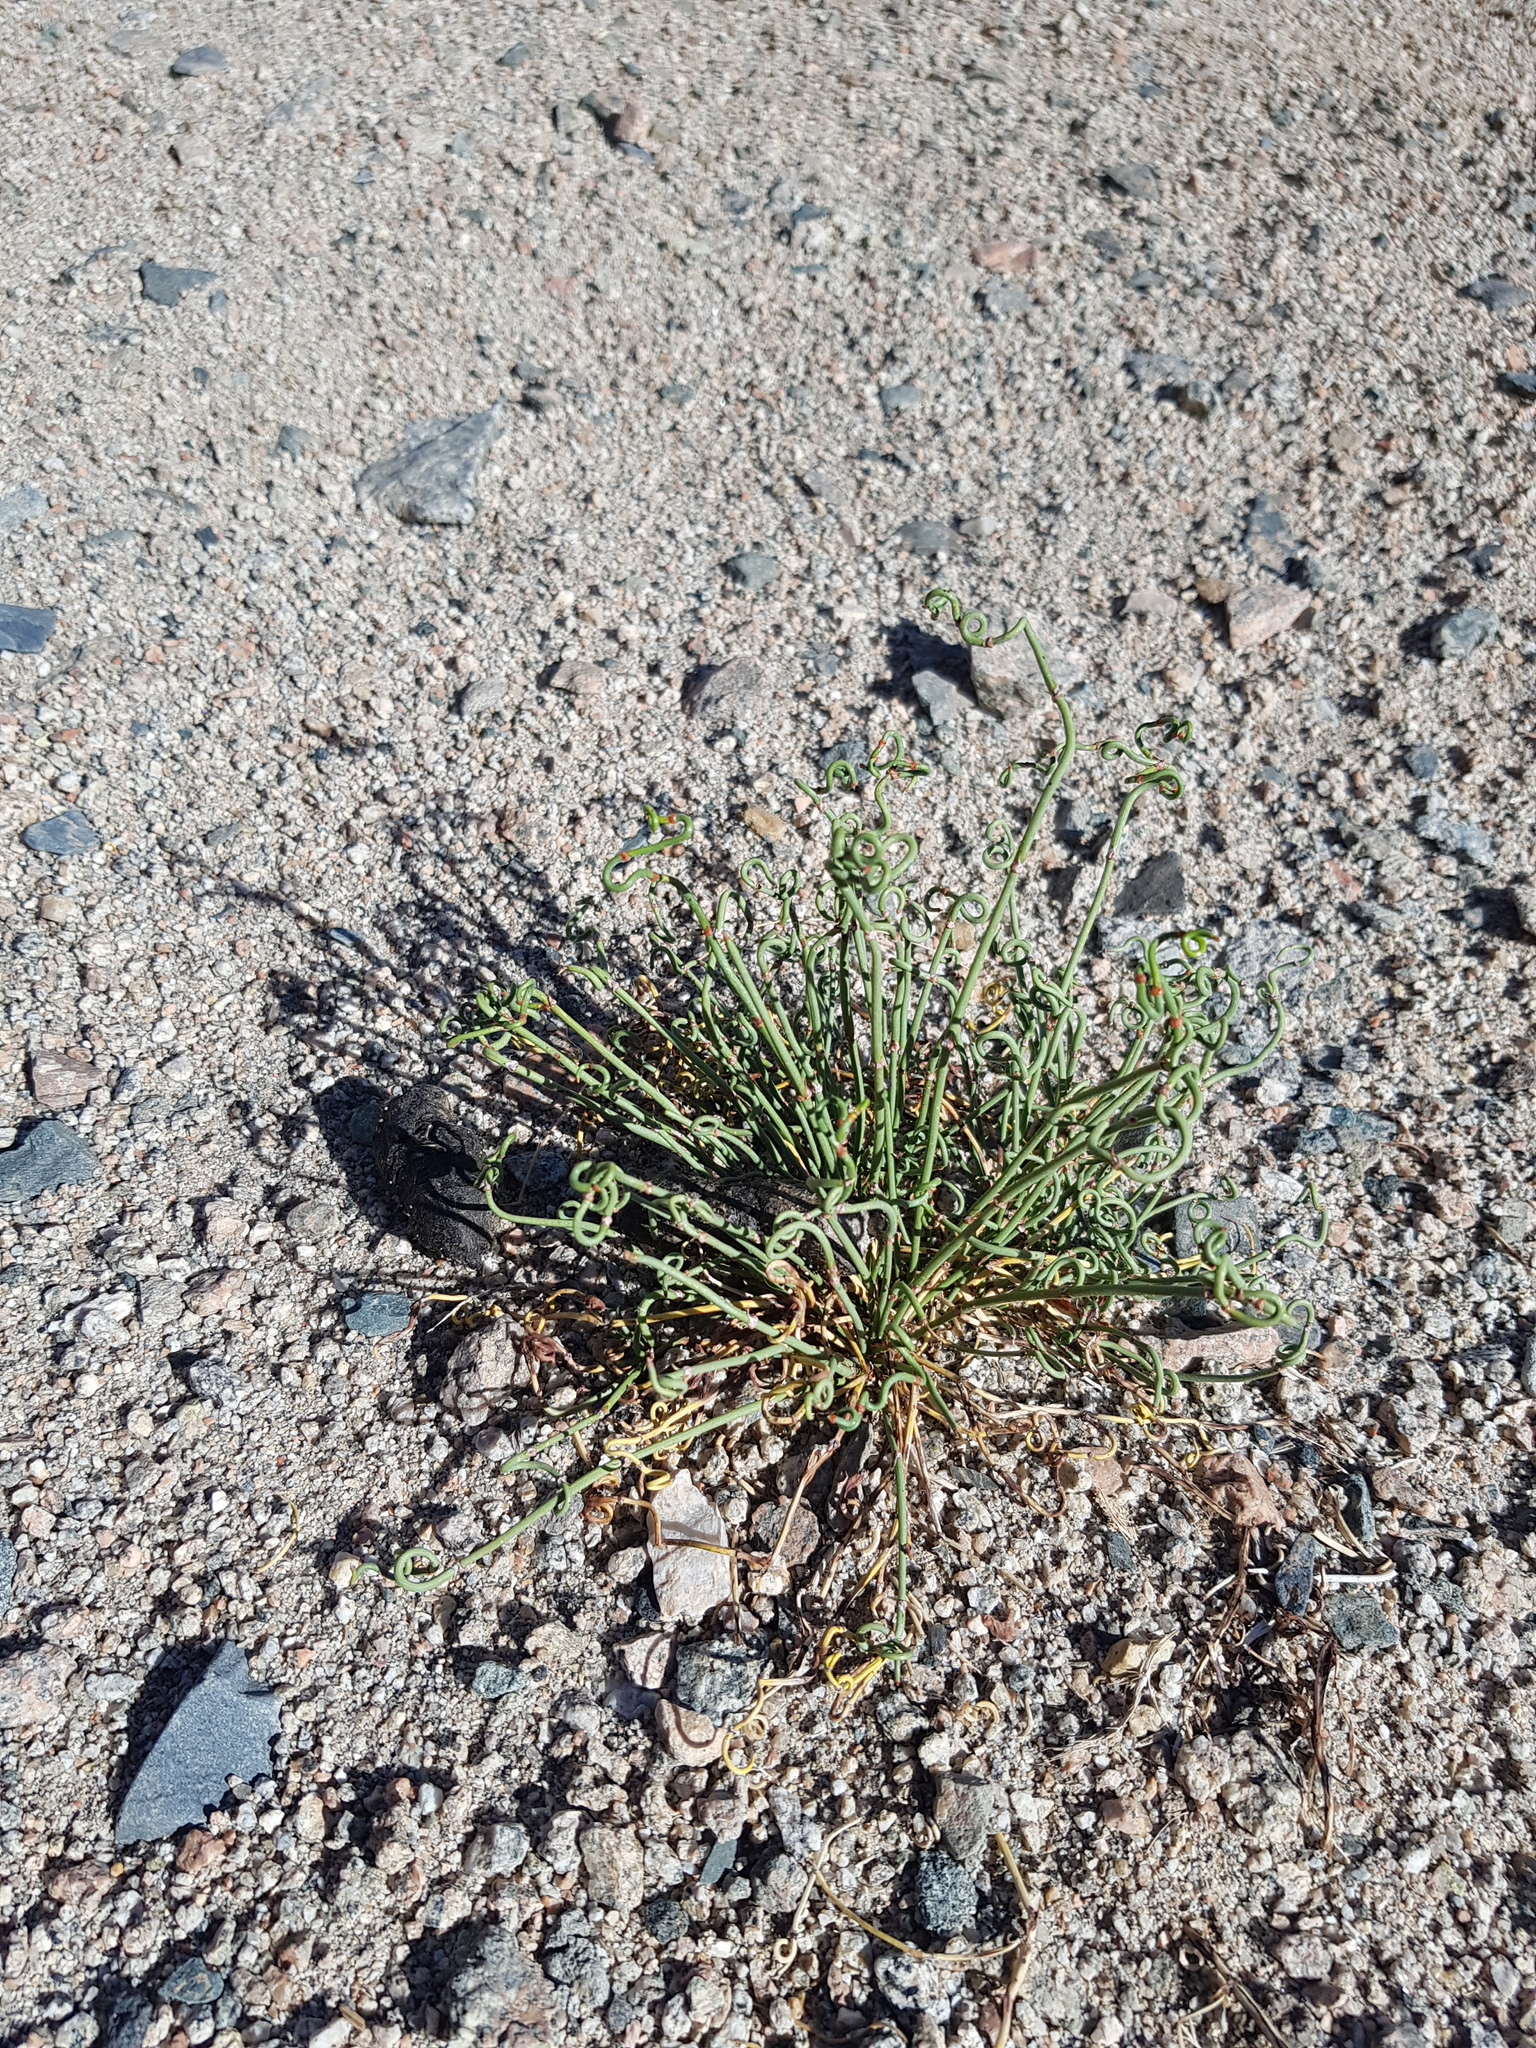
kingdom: Plantae
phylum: Tracheophyta
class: Gnetopsida
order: Ephedrales
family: Ephedraceae
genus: Ephedra
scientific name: Ephedra przewalskii
